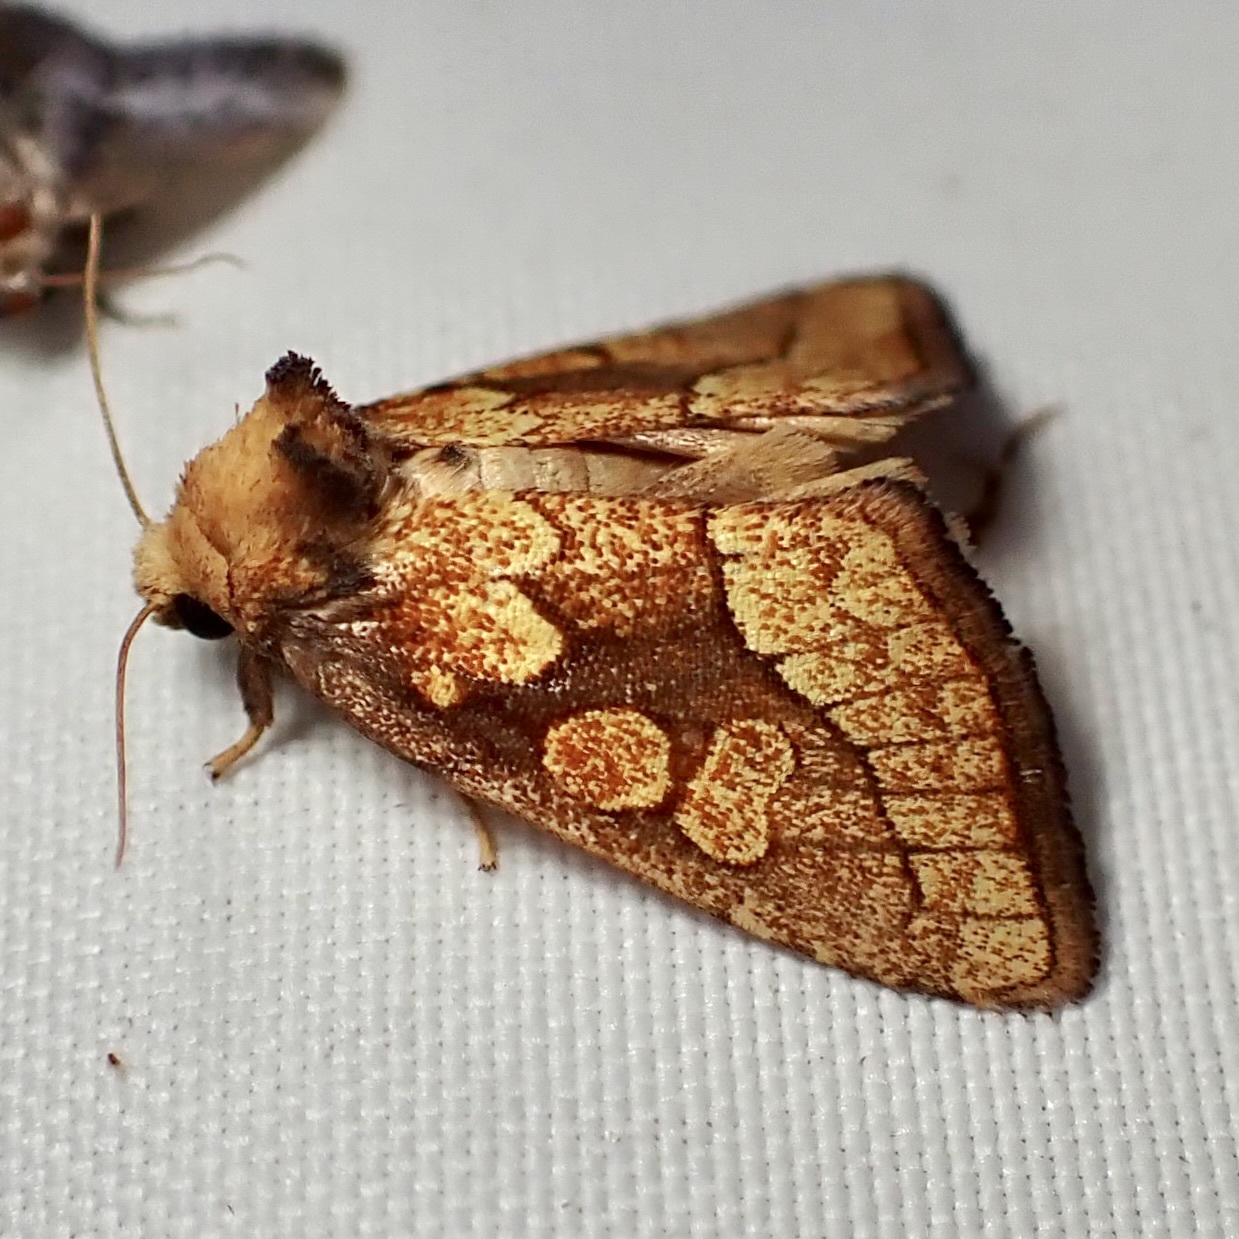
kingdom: Animalia
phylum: Arthropoda
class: Insecta
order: Lepidoptera
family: Noctuidae
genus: Nocloa
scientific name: Nocloa alcandra
